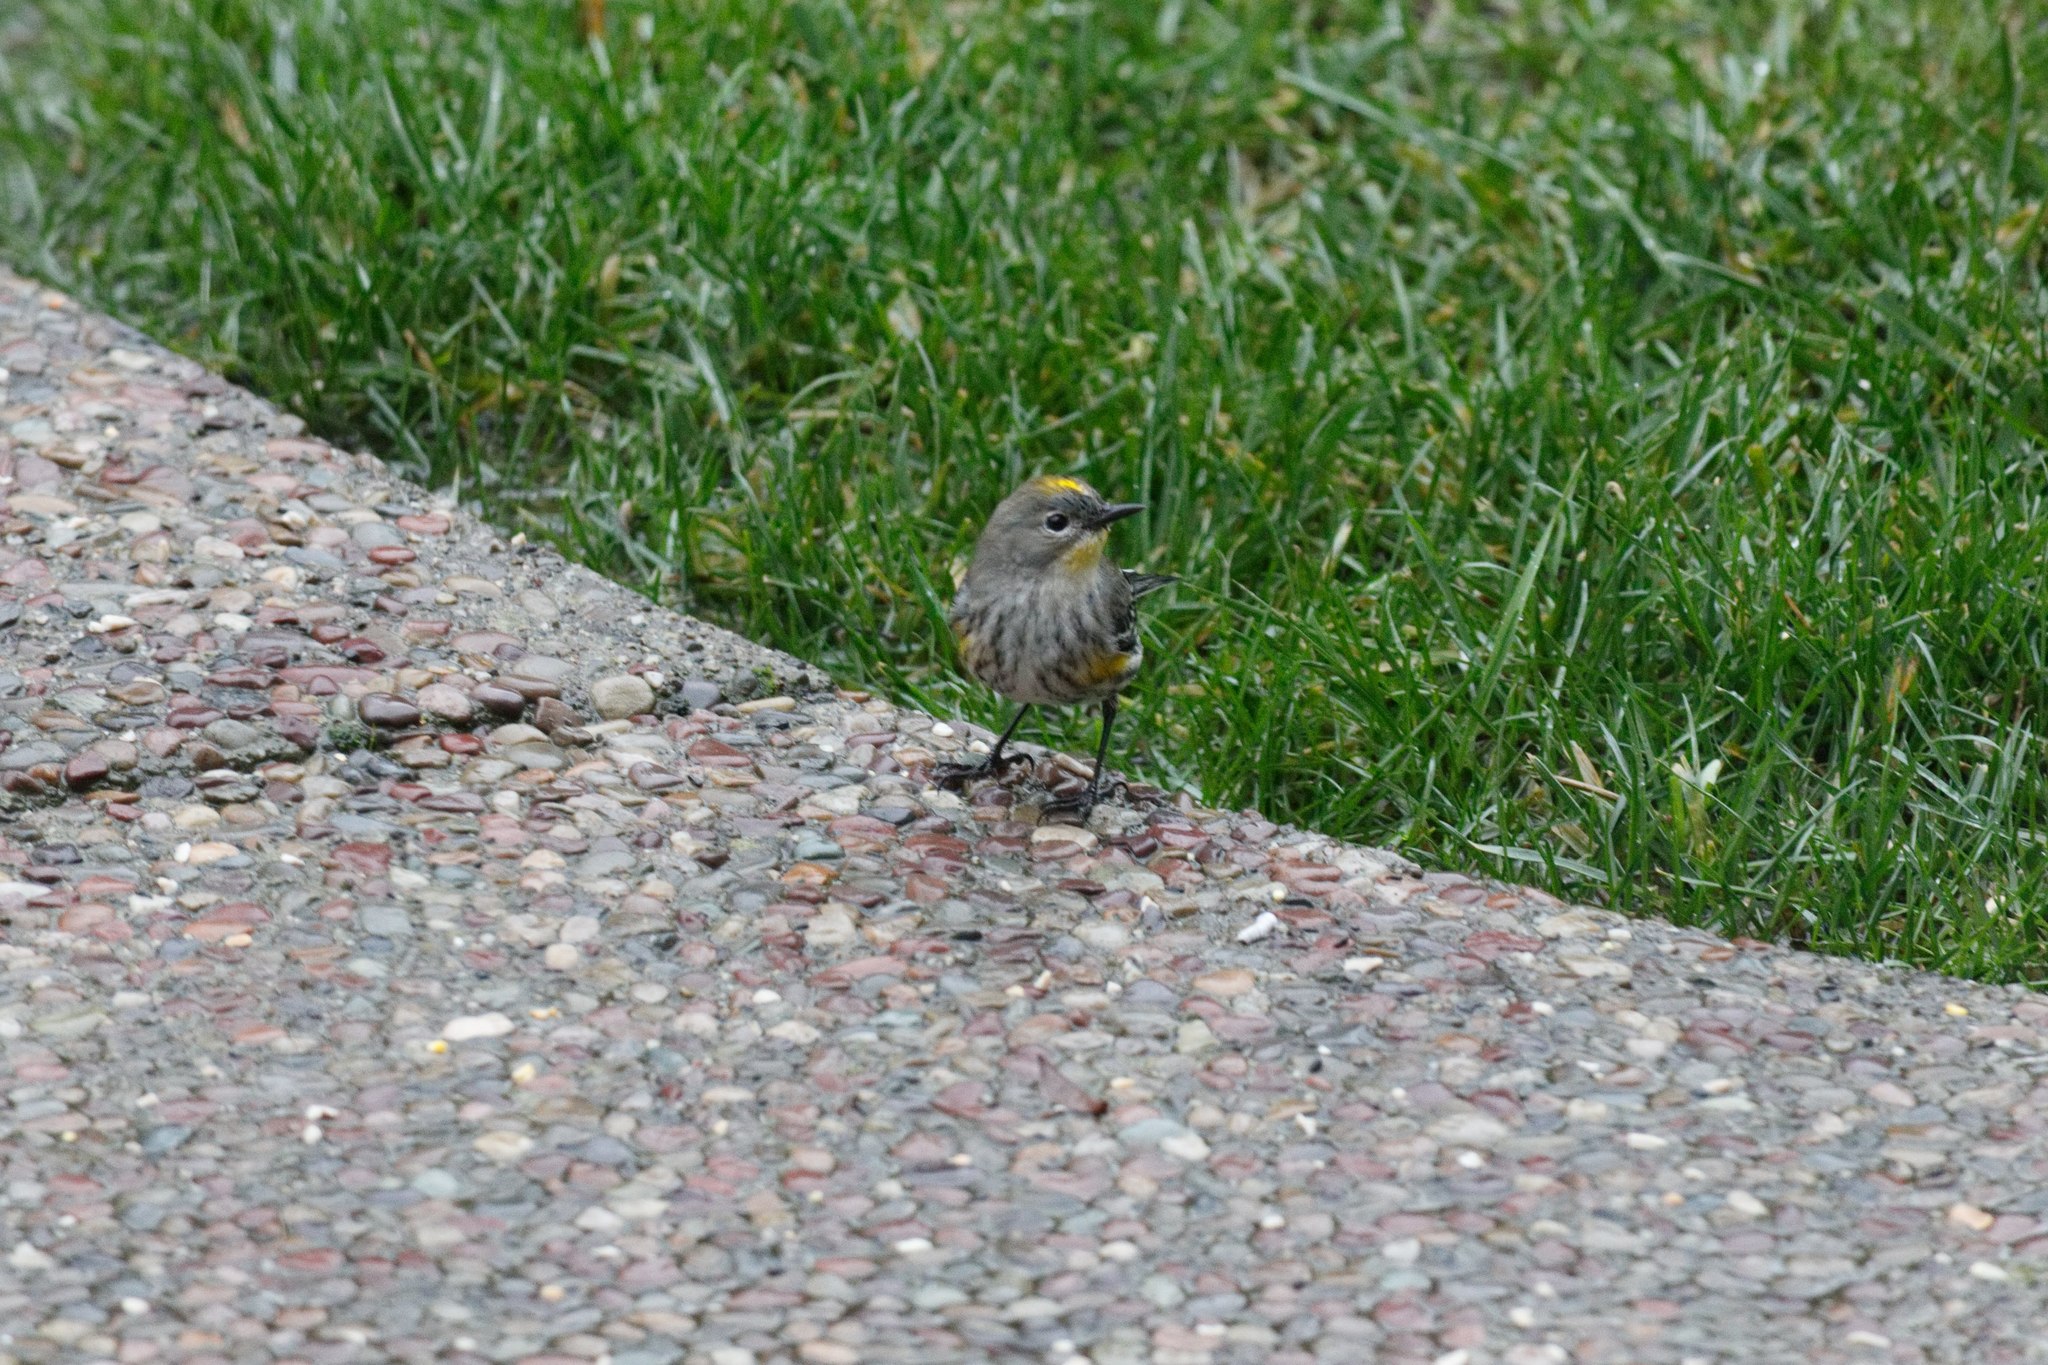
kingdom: Animalia
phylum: Chordata
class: Aves
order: Passeriformes
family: Parulidae
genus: Setophaga
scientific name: Setophaga coronata
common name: Myrtle warbler
